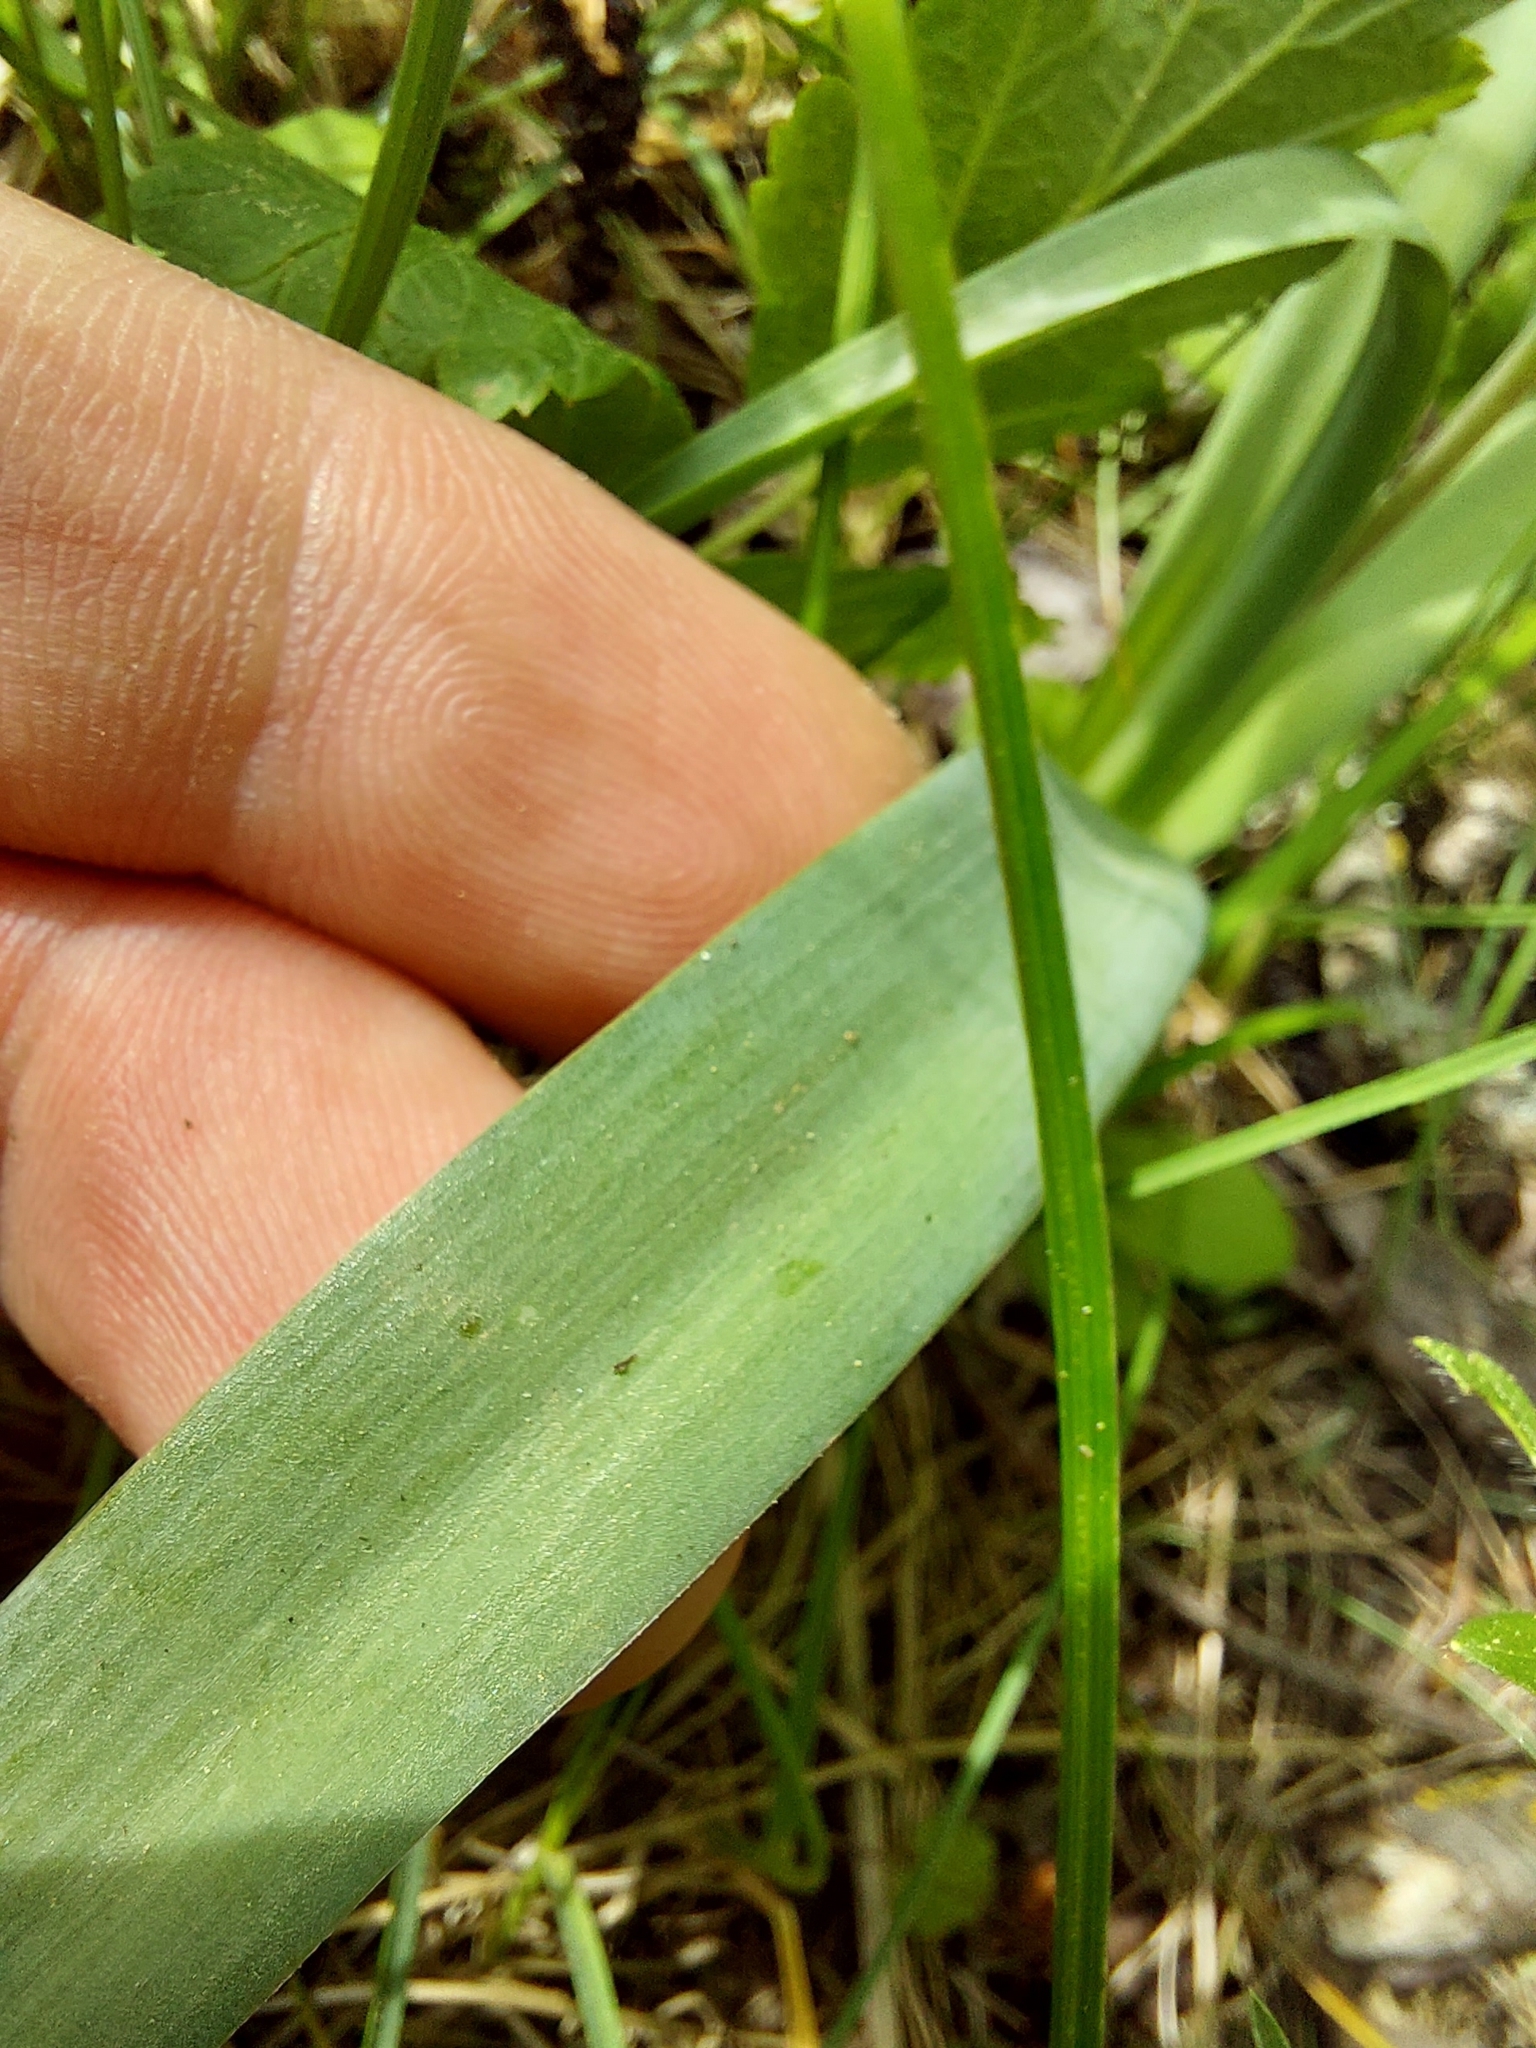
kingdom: Plantae
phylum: Tracheophyta
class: Liliopsida
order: Asparagales
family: Asparagaceae
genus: Muscari
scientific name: Muscari comosum
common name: Tassel hyacinth
